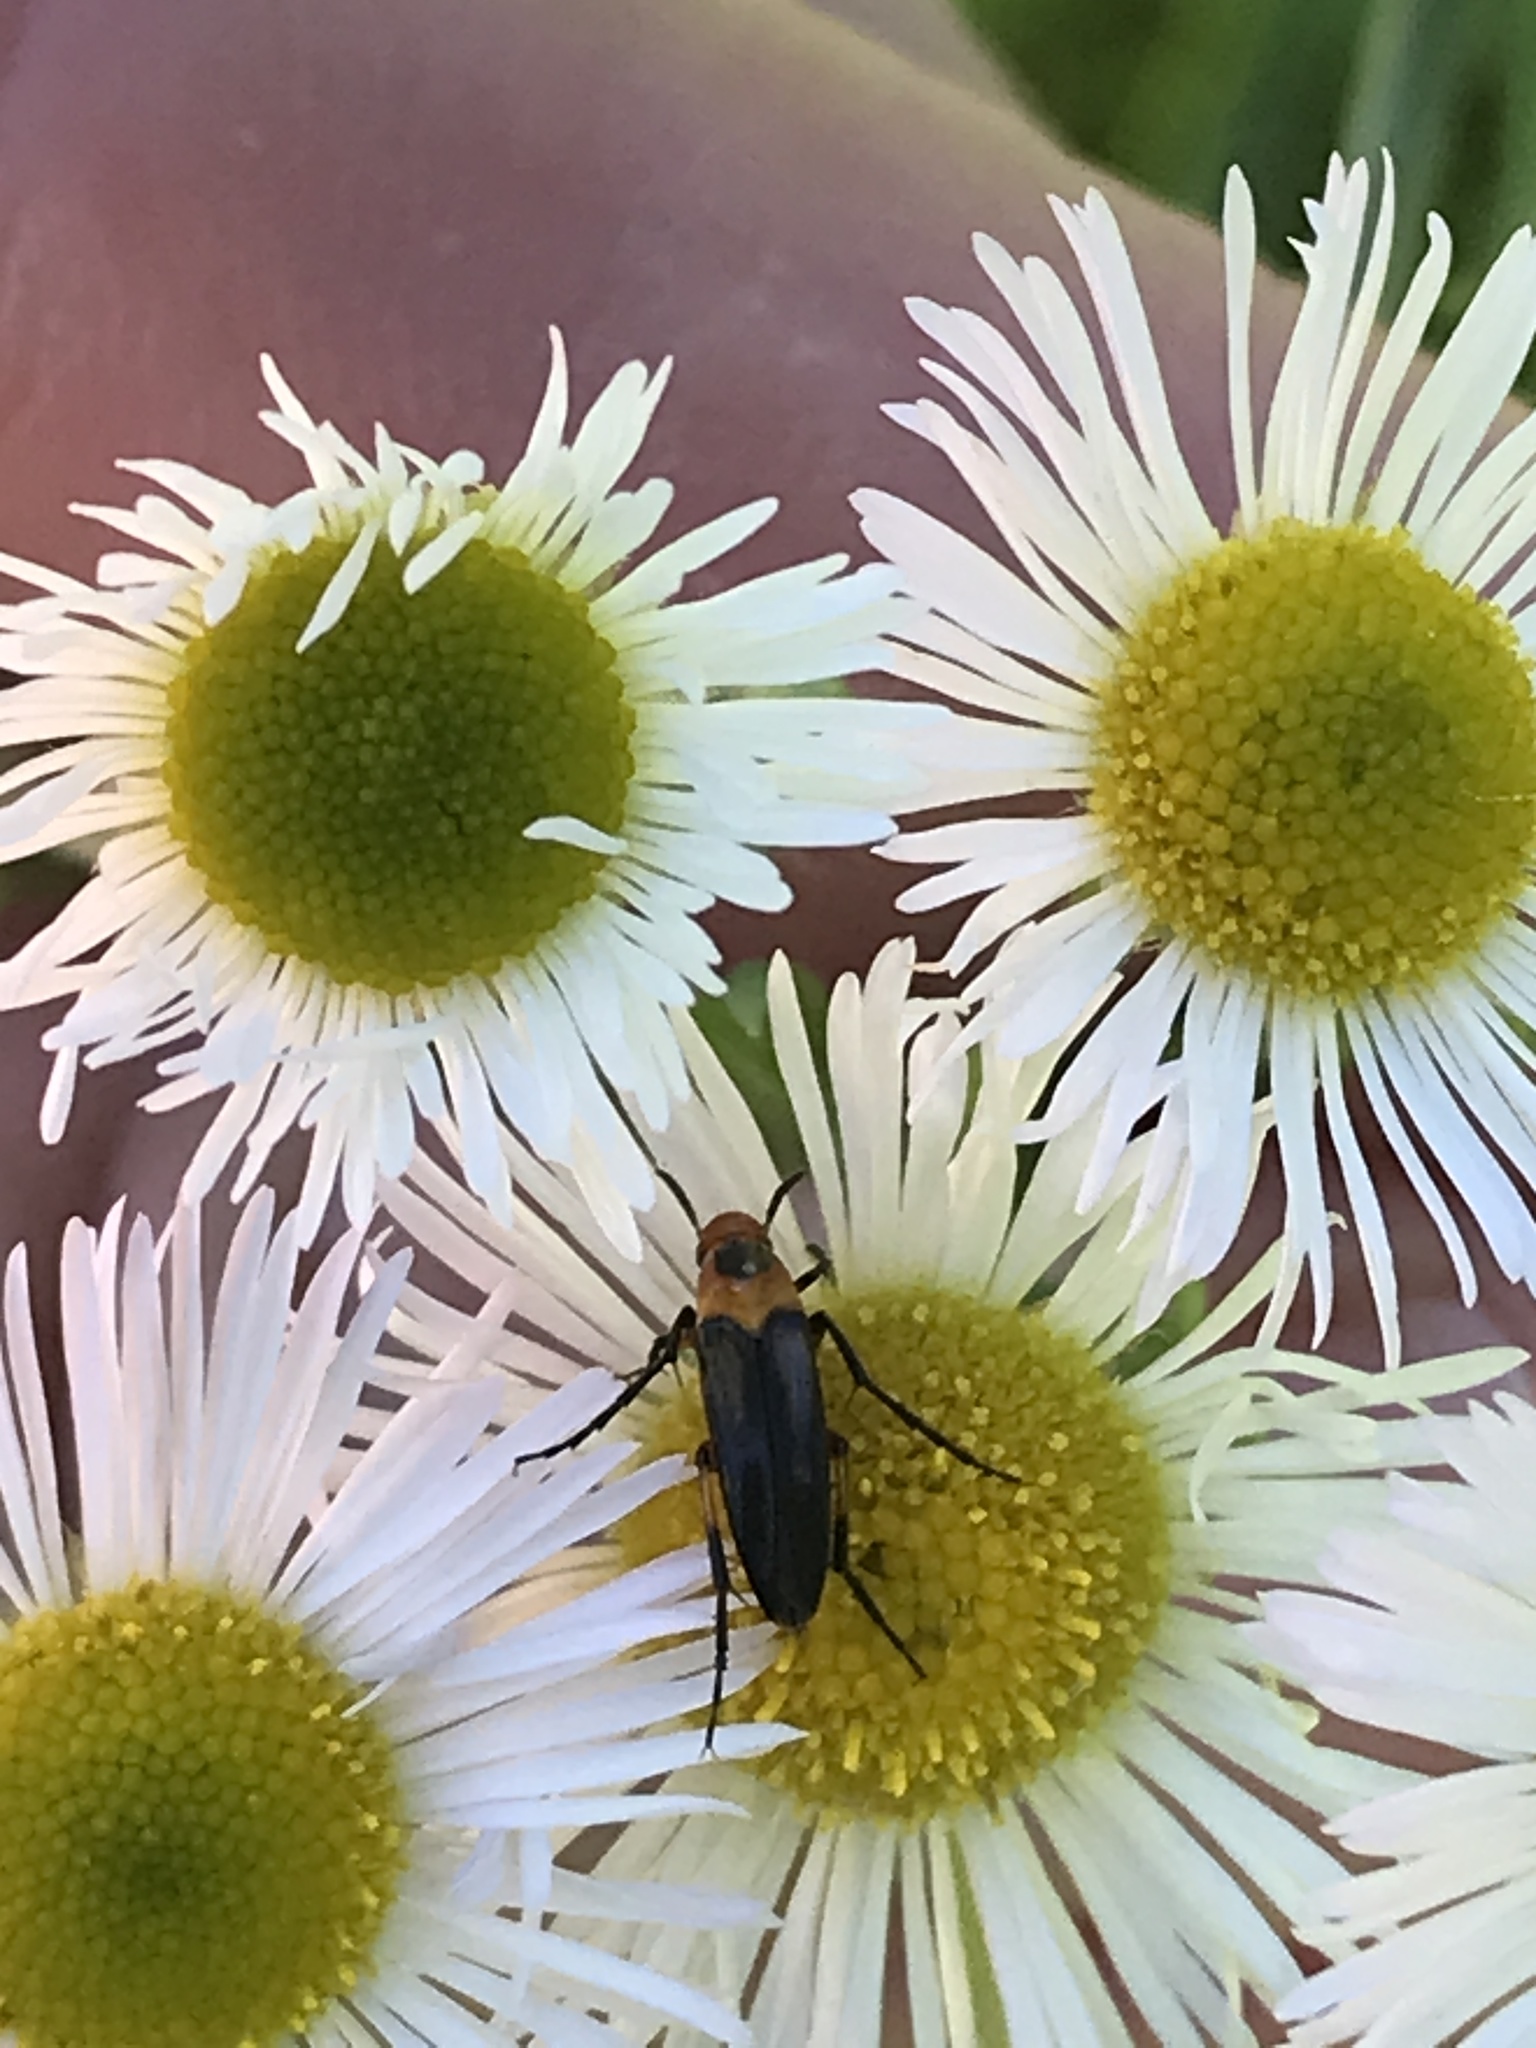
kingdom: Animalia
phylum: Arthropoda
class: Insecta
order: Coleoptera
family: Ripiphoridae
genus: Macrosiagon
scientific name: Macrosiagon limbatum
